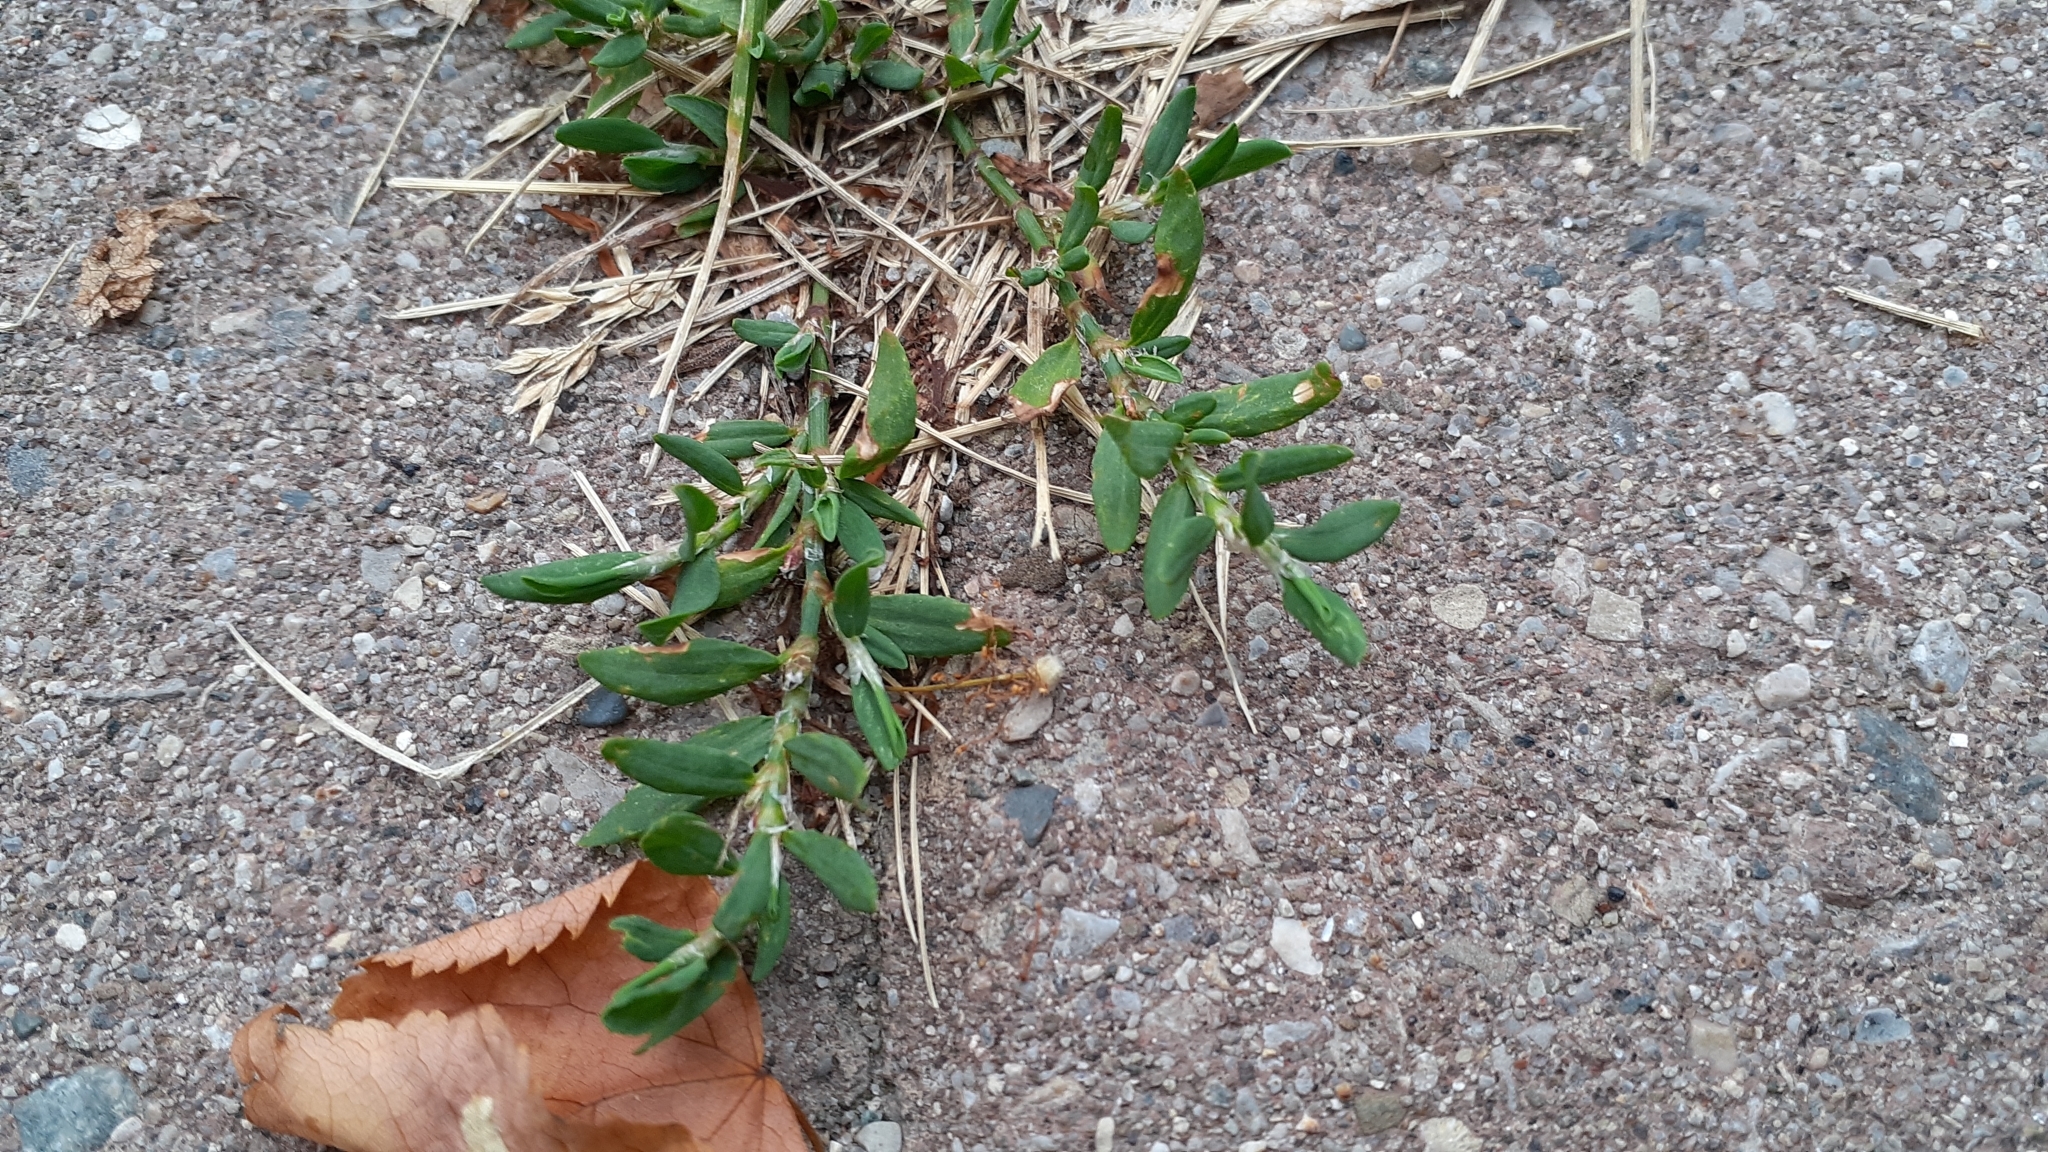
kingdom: Plantae
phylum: Tracheophyta
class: Magnoliopsida
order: Caryophyllales
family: Polygonaceae
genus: Polygonum
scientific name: Polygonum aviculare
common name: Prostrate knotweed
